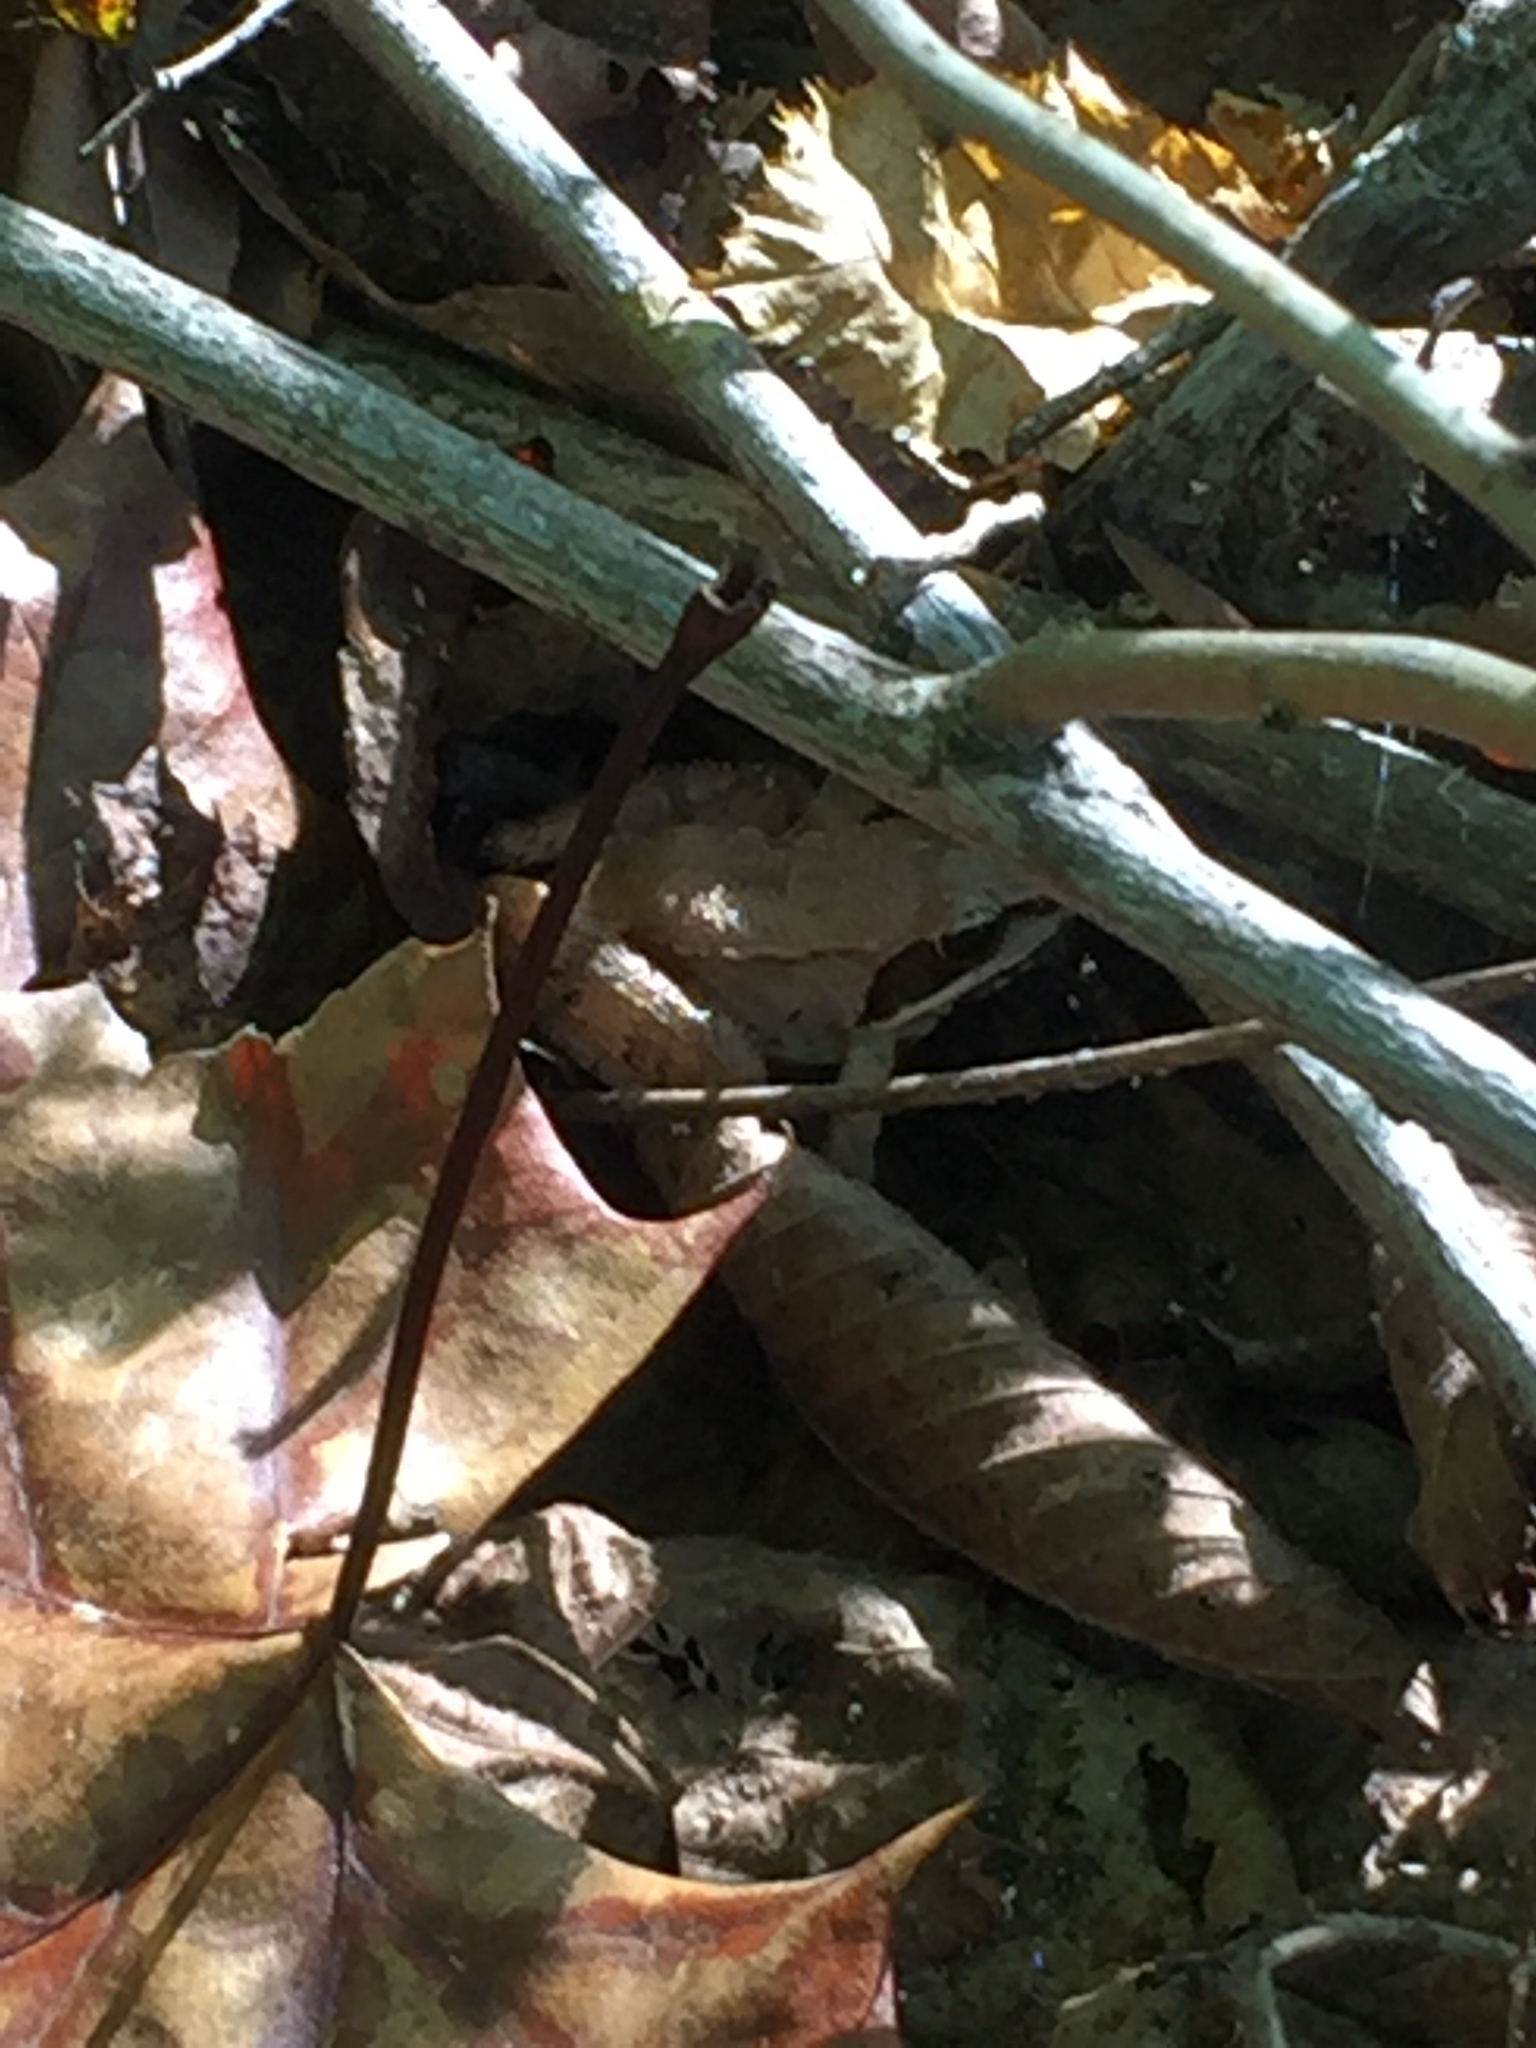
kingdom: Animalia
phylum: Chordata
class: Amphibia
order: Anura
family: Ranidae
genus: Lithobates
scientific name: Lithobates sylvaticus
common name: Wood frog
